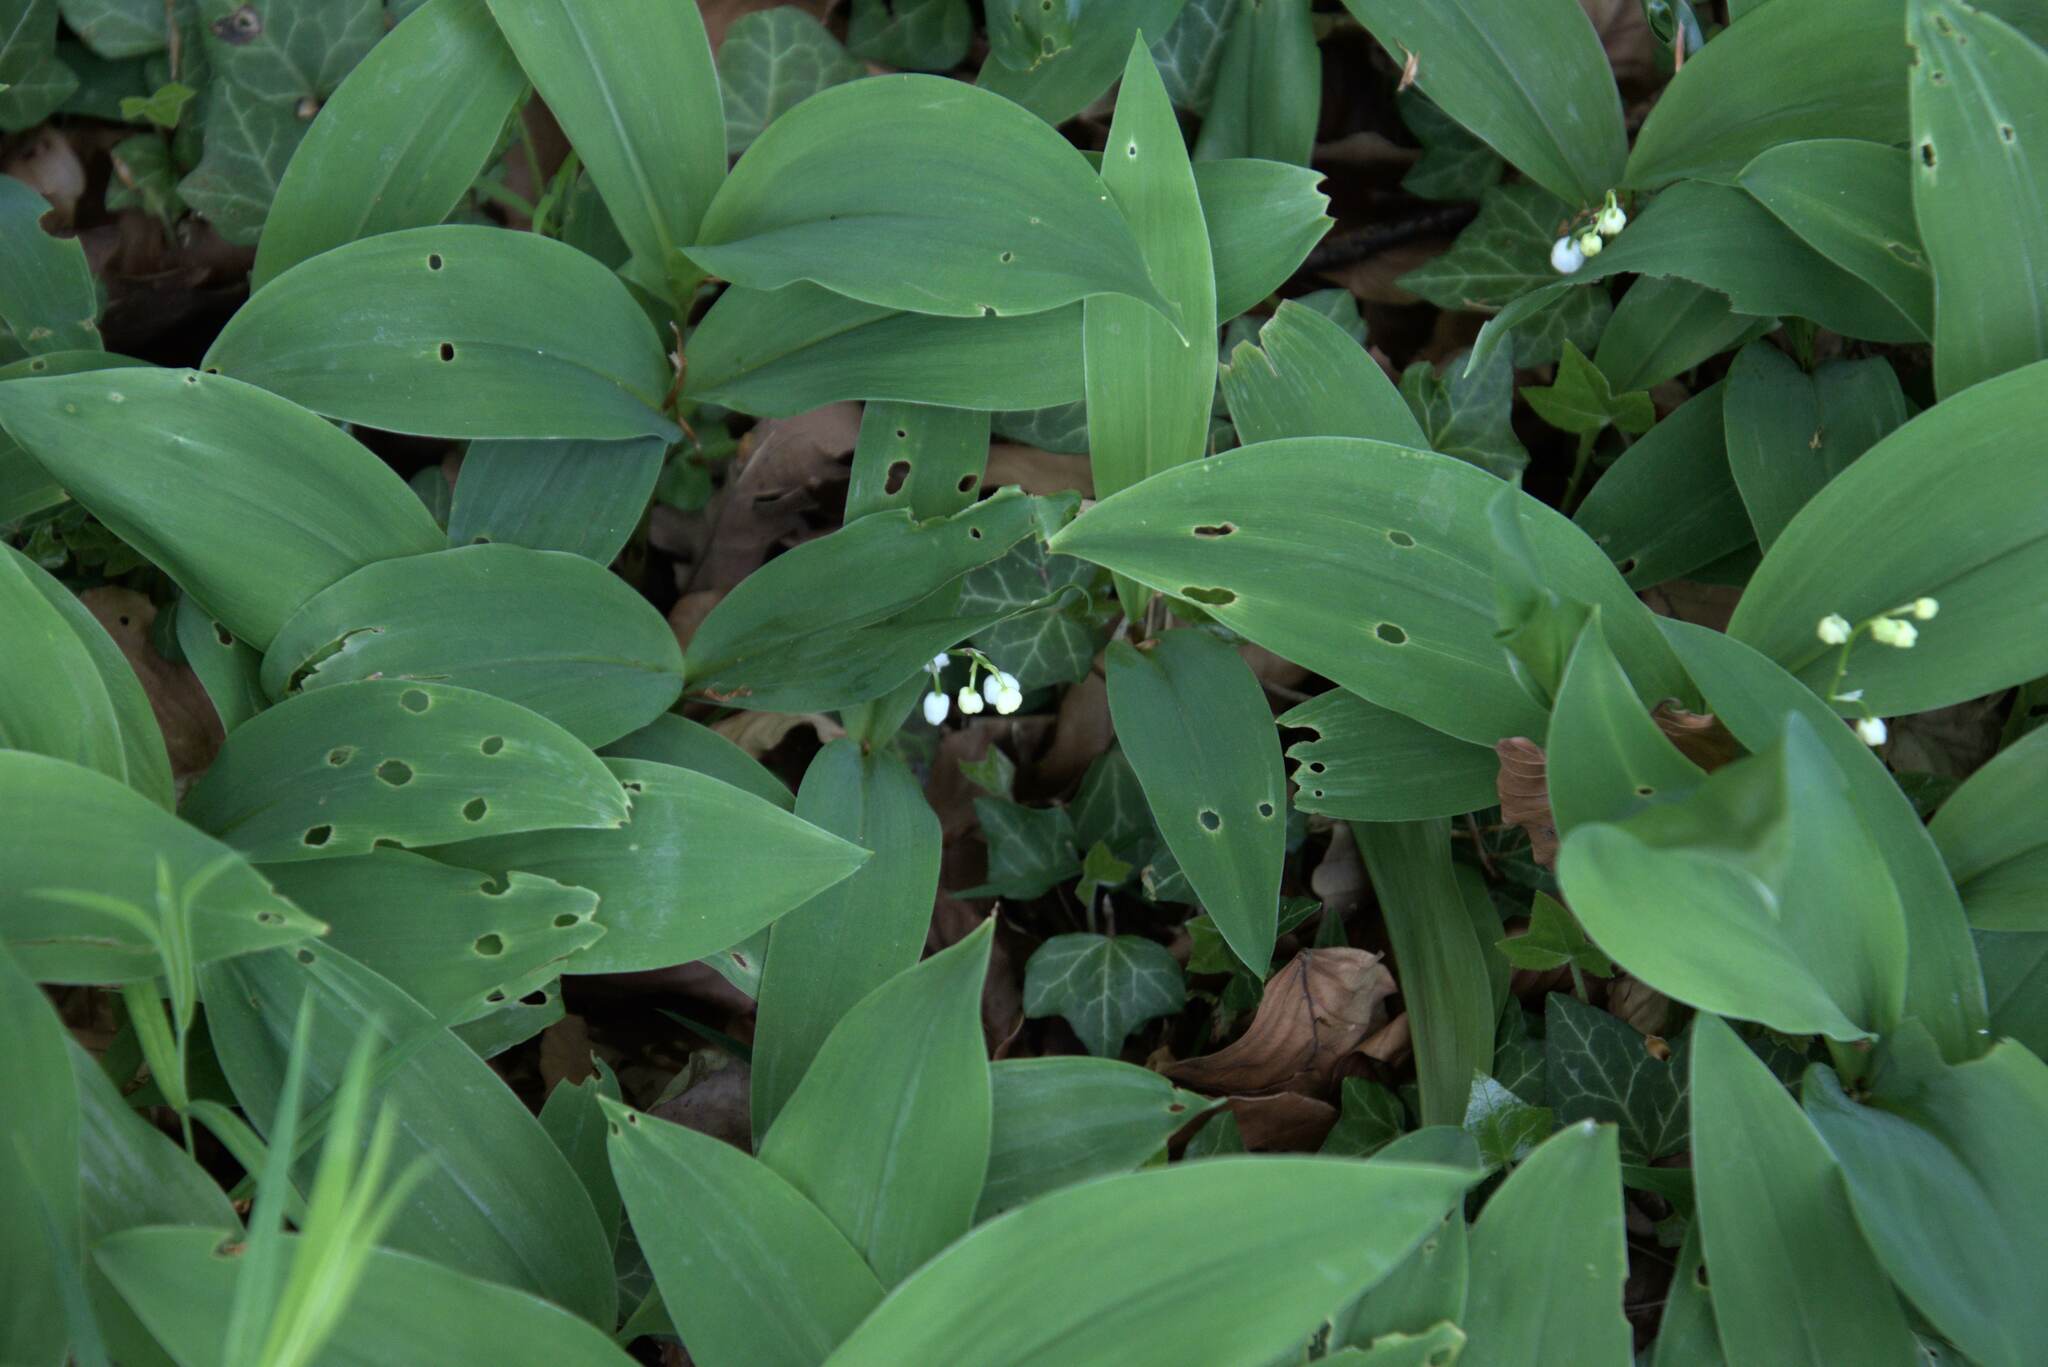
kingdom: Plantae
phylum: Tracheophyta
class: Liliopsida
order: Asparagales
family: Asparagaceae
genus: Convallaria
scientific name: Convallaria majalis
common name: Lily-of-the-valley
